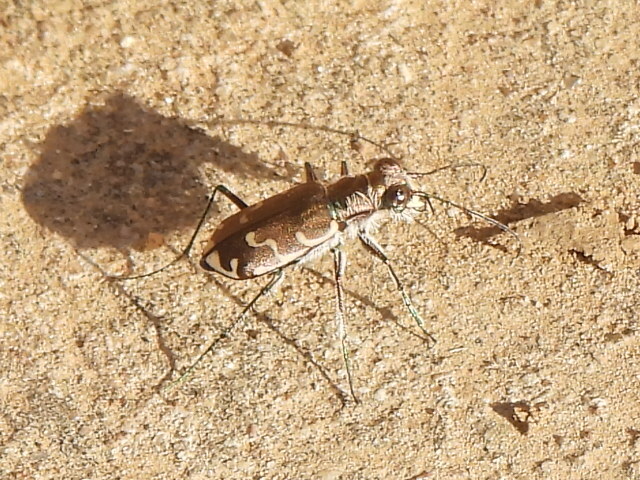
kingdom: Animalia
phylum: Arthropoda
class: Insecta
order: Coleoptera
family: Carabidae
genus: Cicindela
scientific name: Cicindela repanda
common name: Bronzed tiger beetle
